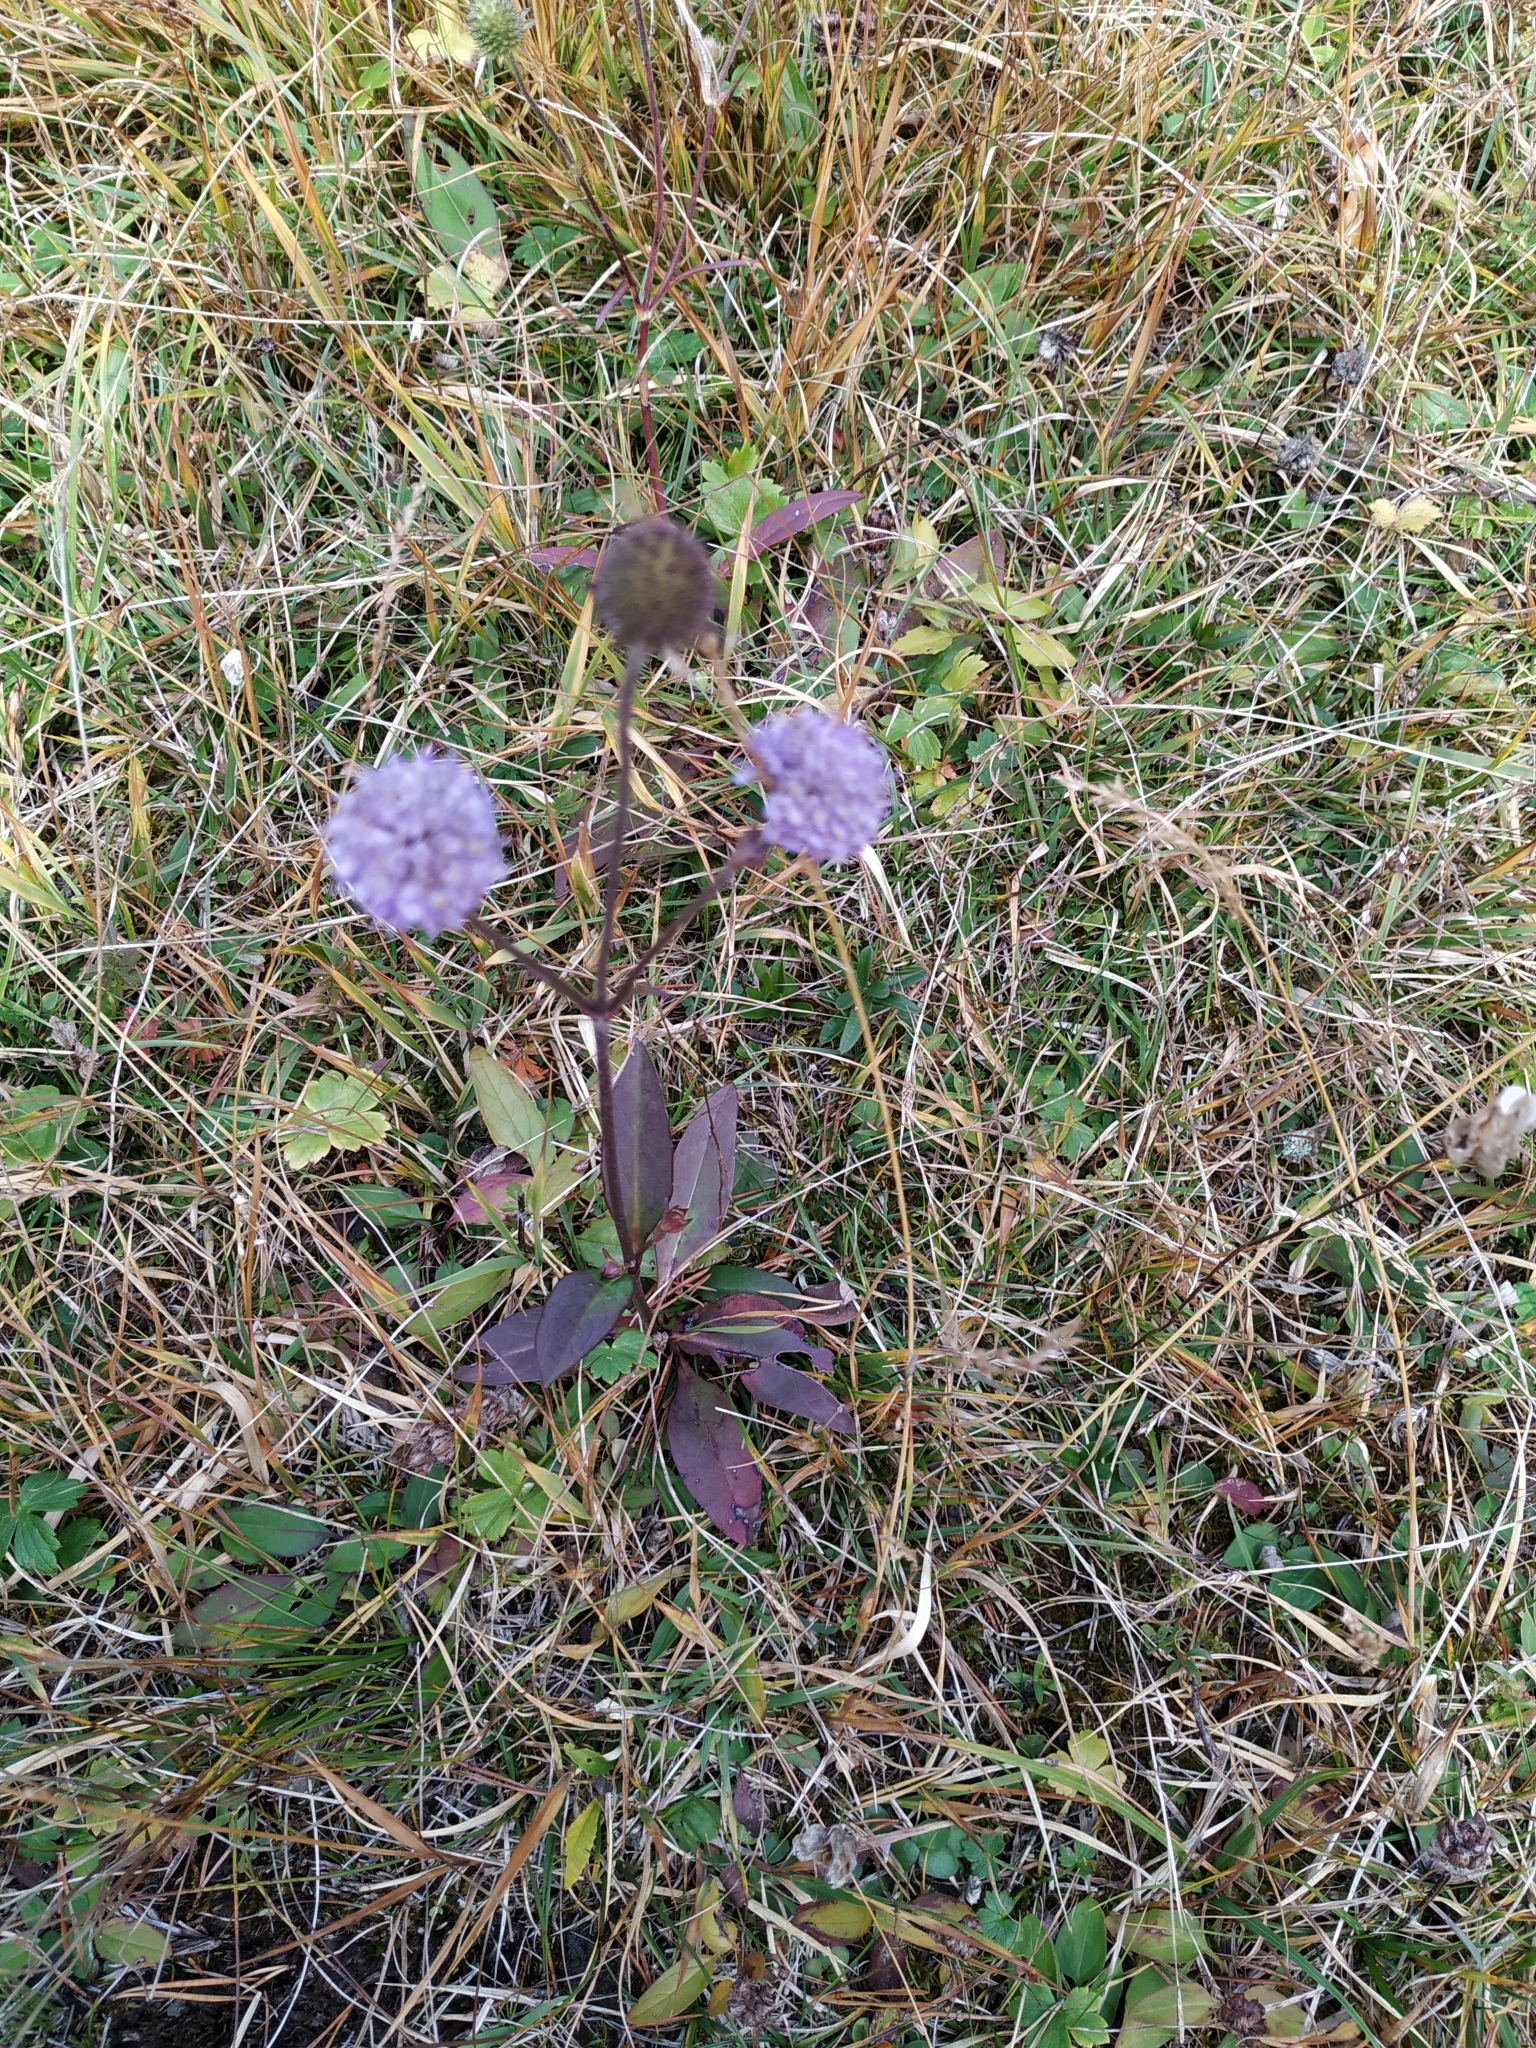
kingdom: Plantae
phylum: Tracheophyta
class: Magnoliopsida
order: Dipsacales
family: Caprifoliaceae
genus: Succisa
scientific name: Succisa pratensis
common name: Devil's-bit
